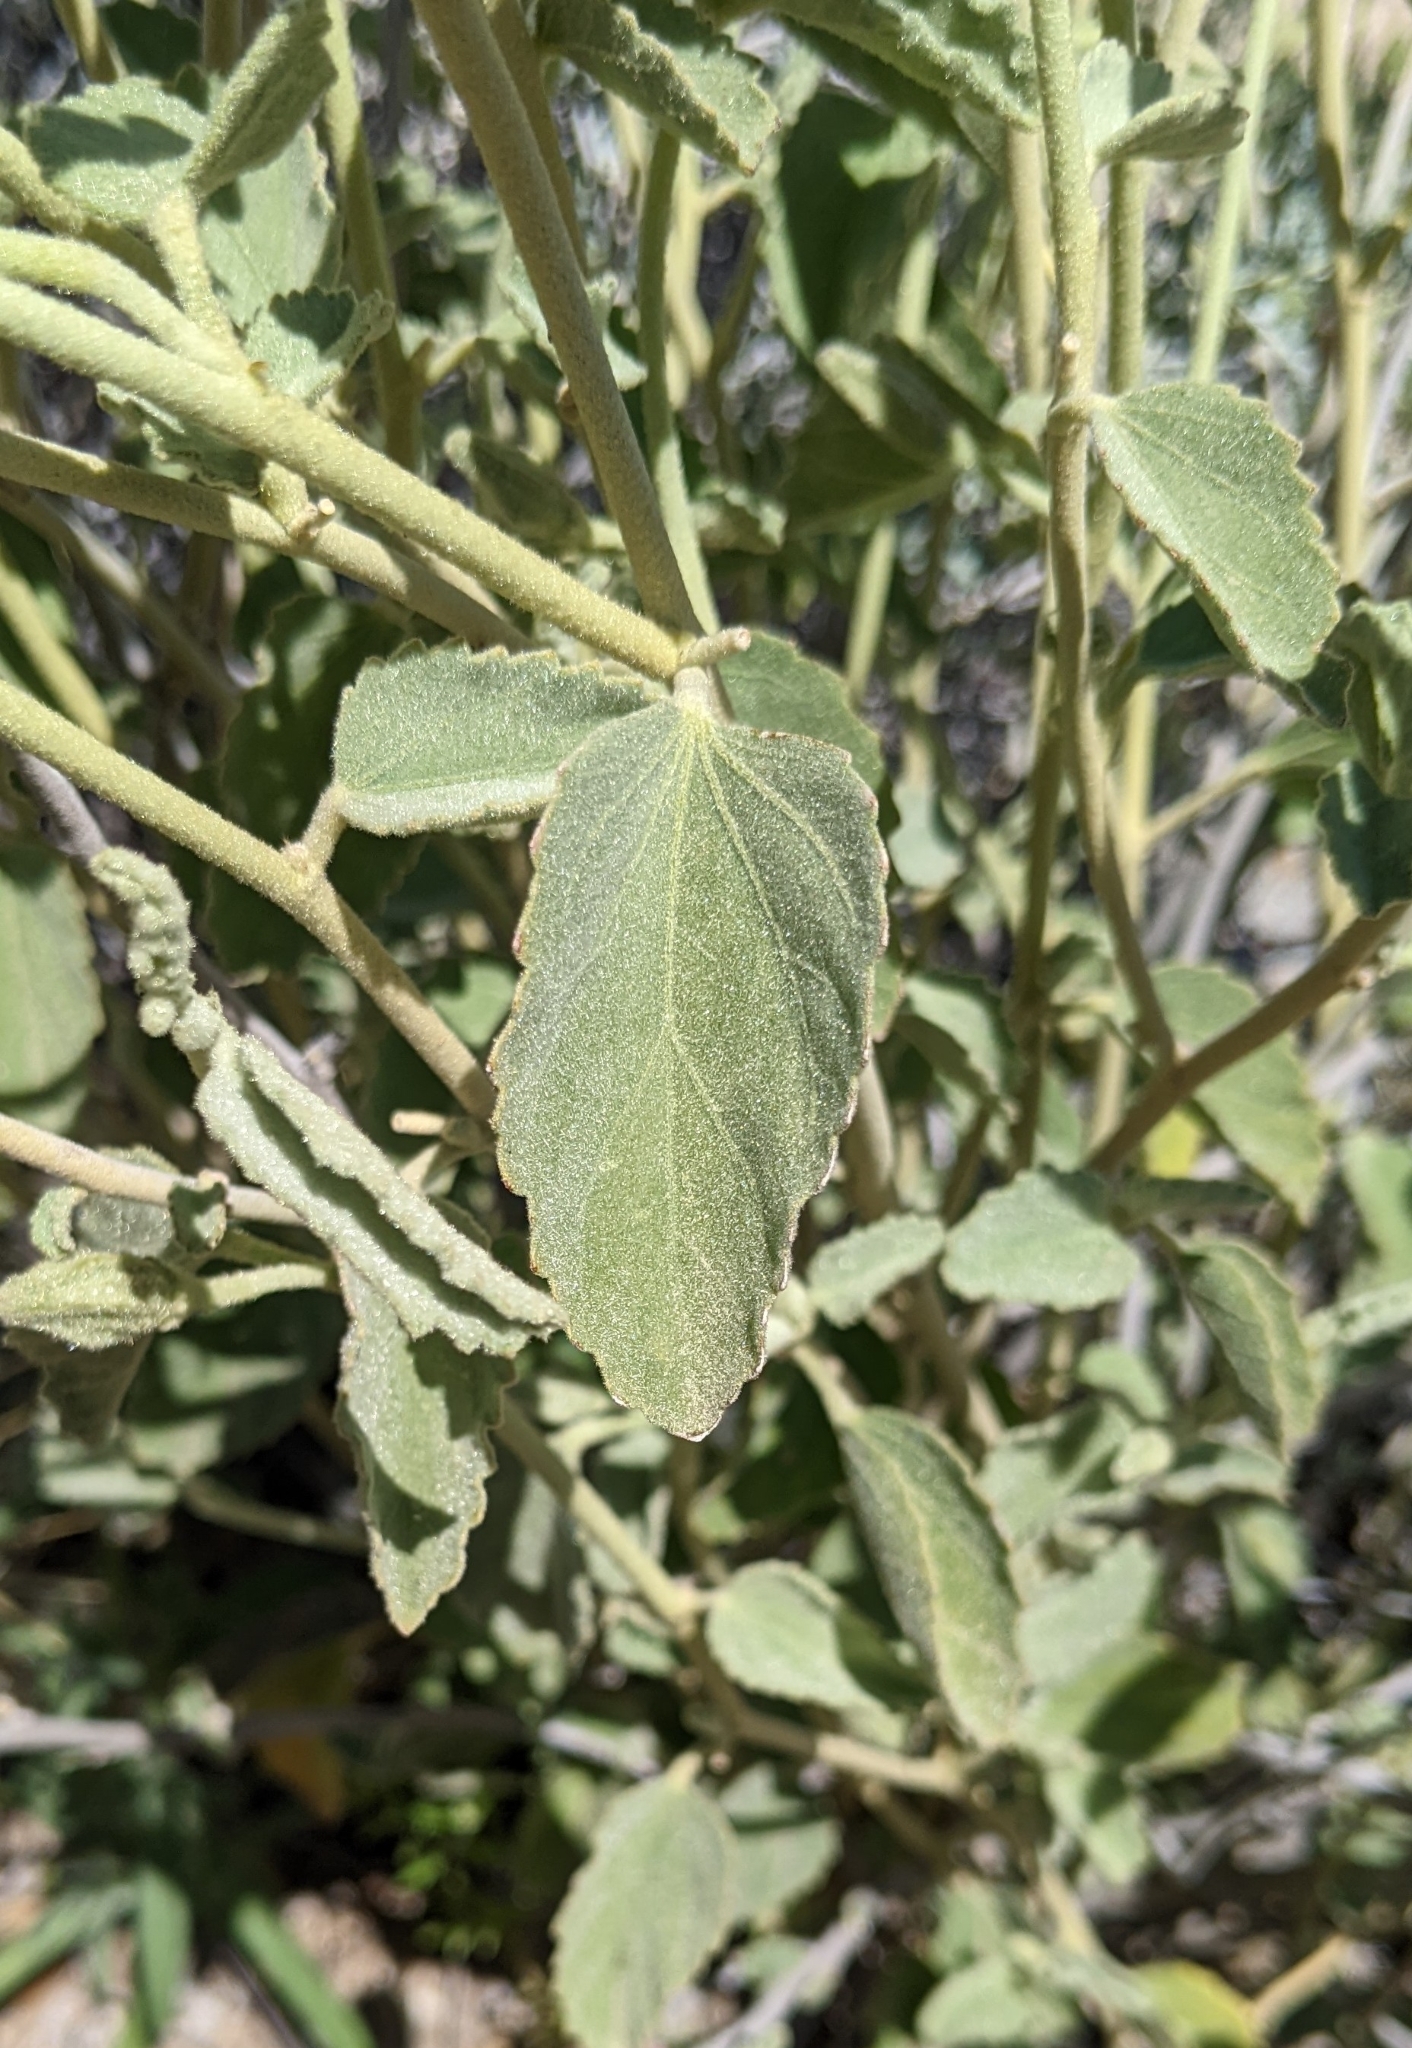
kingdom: Plantae
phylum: Tracheophyta
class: Magnoliopsida
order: Malvales
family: Malvaceae
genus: Hibiscus
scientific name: Hibiscus denudatus
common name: Paleface
